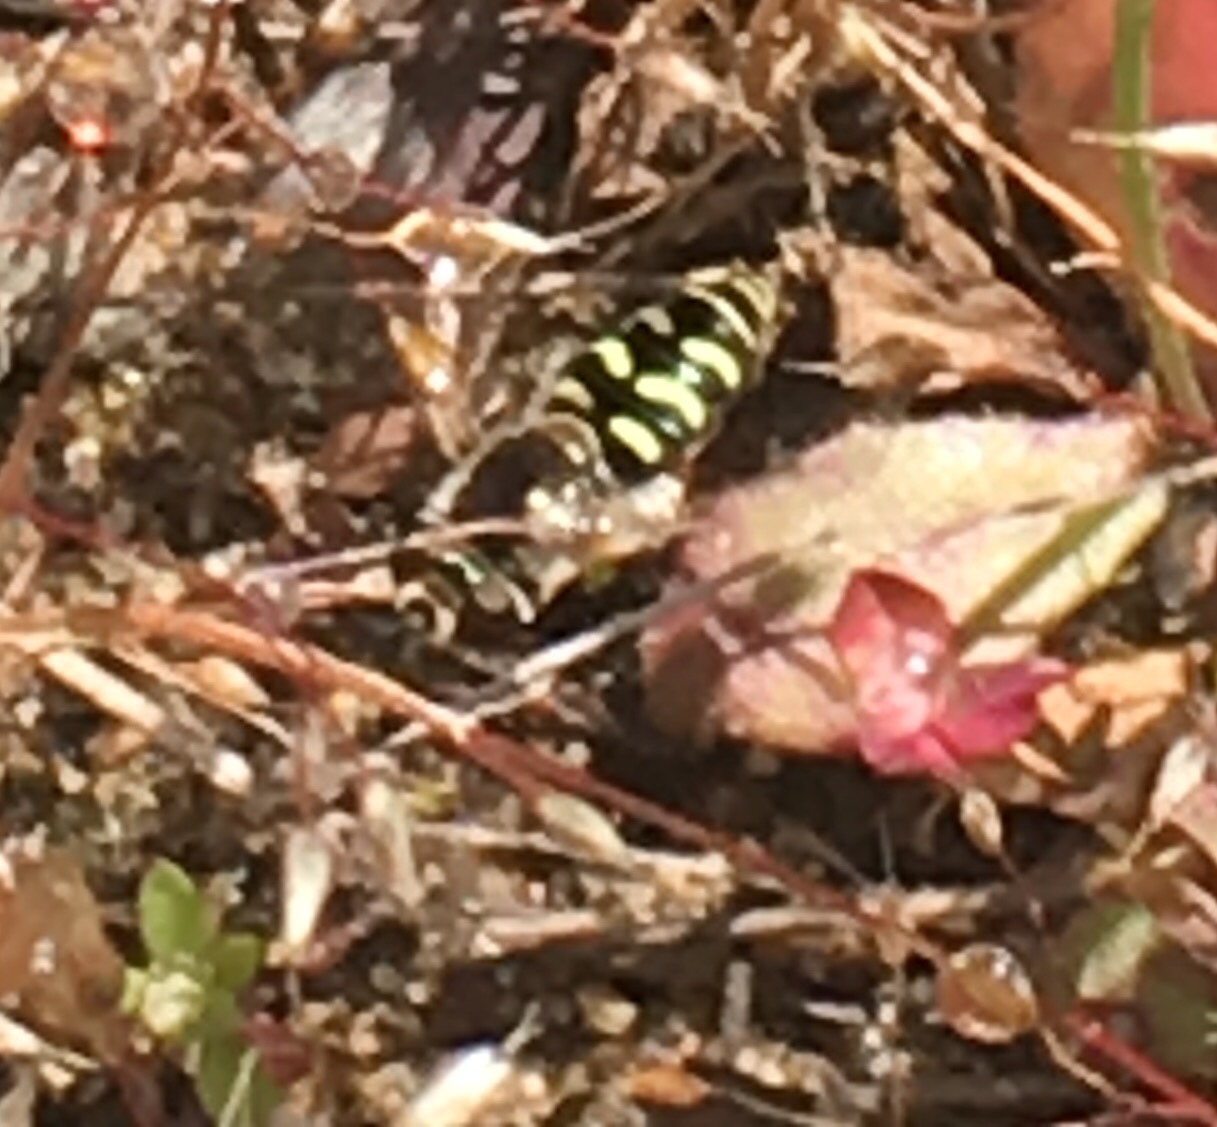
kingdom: Animalia
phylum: Arthropoda
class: Insecta
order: Diptera
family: Syrphidae
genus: Eupeodes
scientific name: Eupeodes volucris
